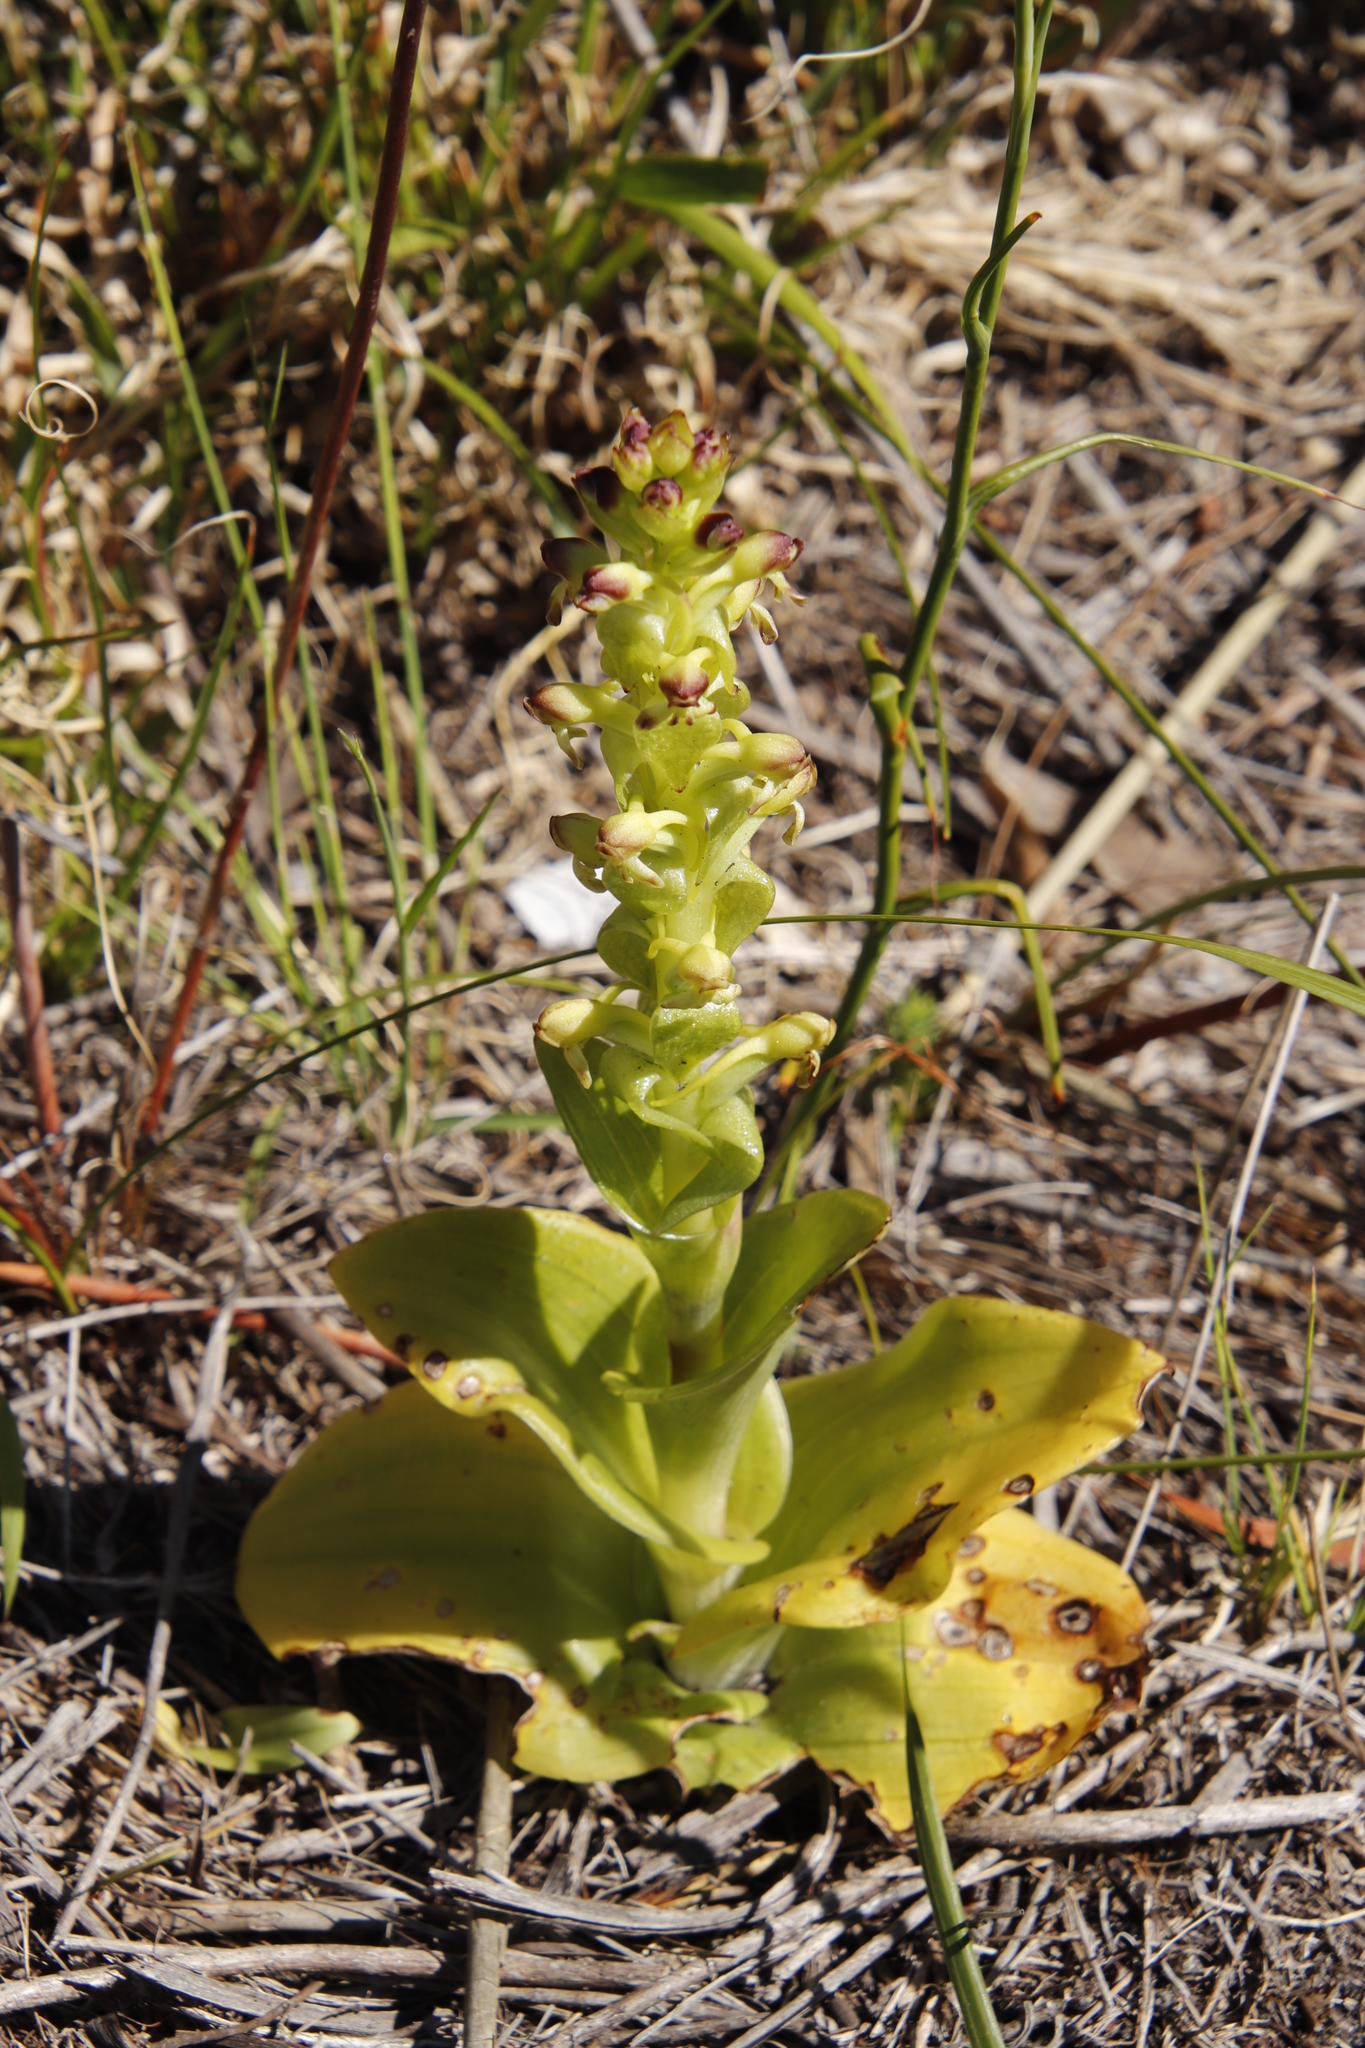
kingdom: Plantae
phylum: Tracheophyta
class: Liliopsida
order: Asparagales
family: Orchidaceae
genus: Satyrium
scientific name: Satyrium odorum
